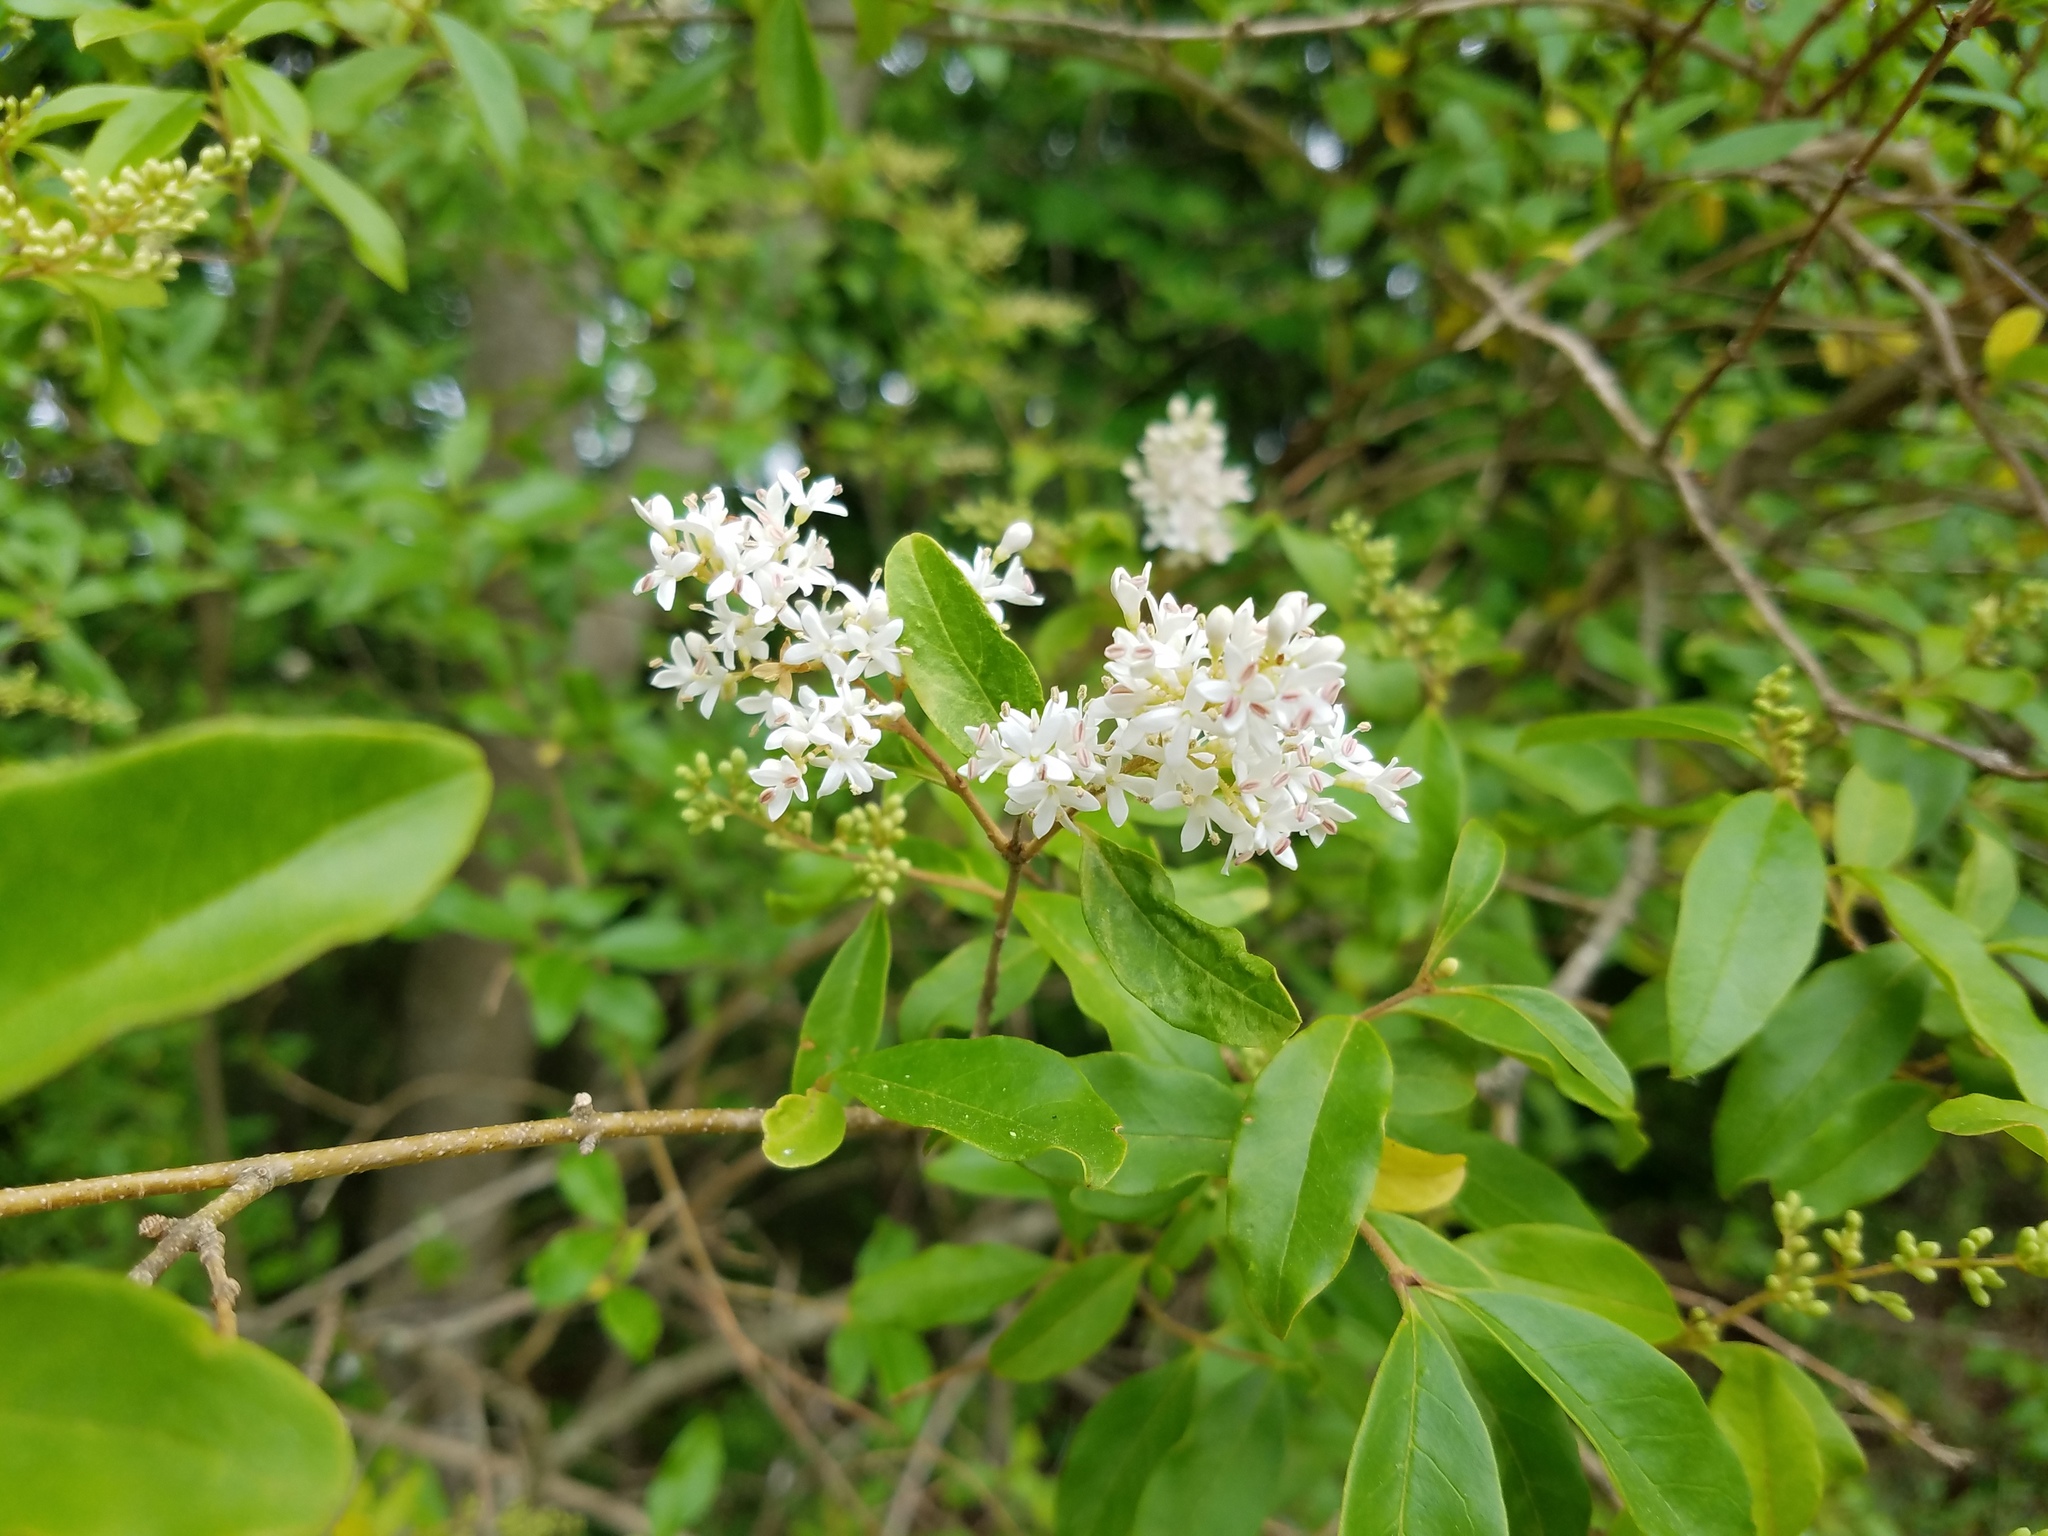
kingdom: Plantae
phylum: Tracheophyta
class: Magnoliopsida
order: Lamiales
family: Oleaceae
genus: Ligustrum
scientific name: Ligustrum sinense
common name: Chinese privet
